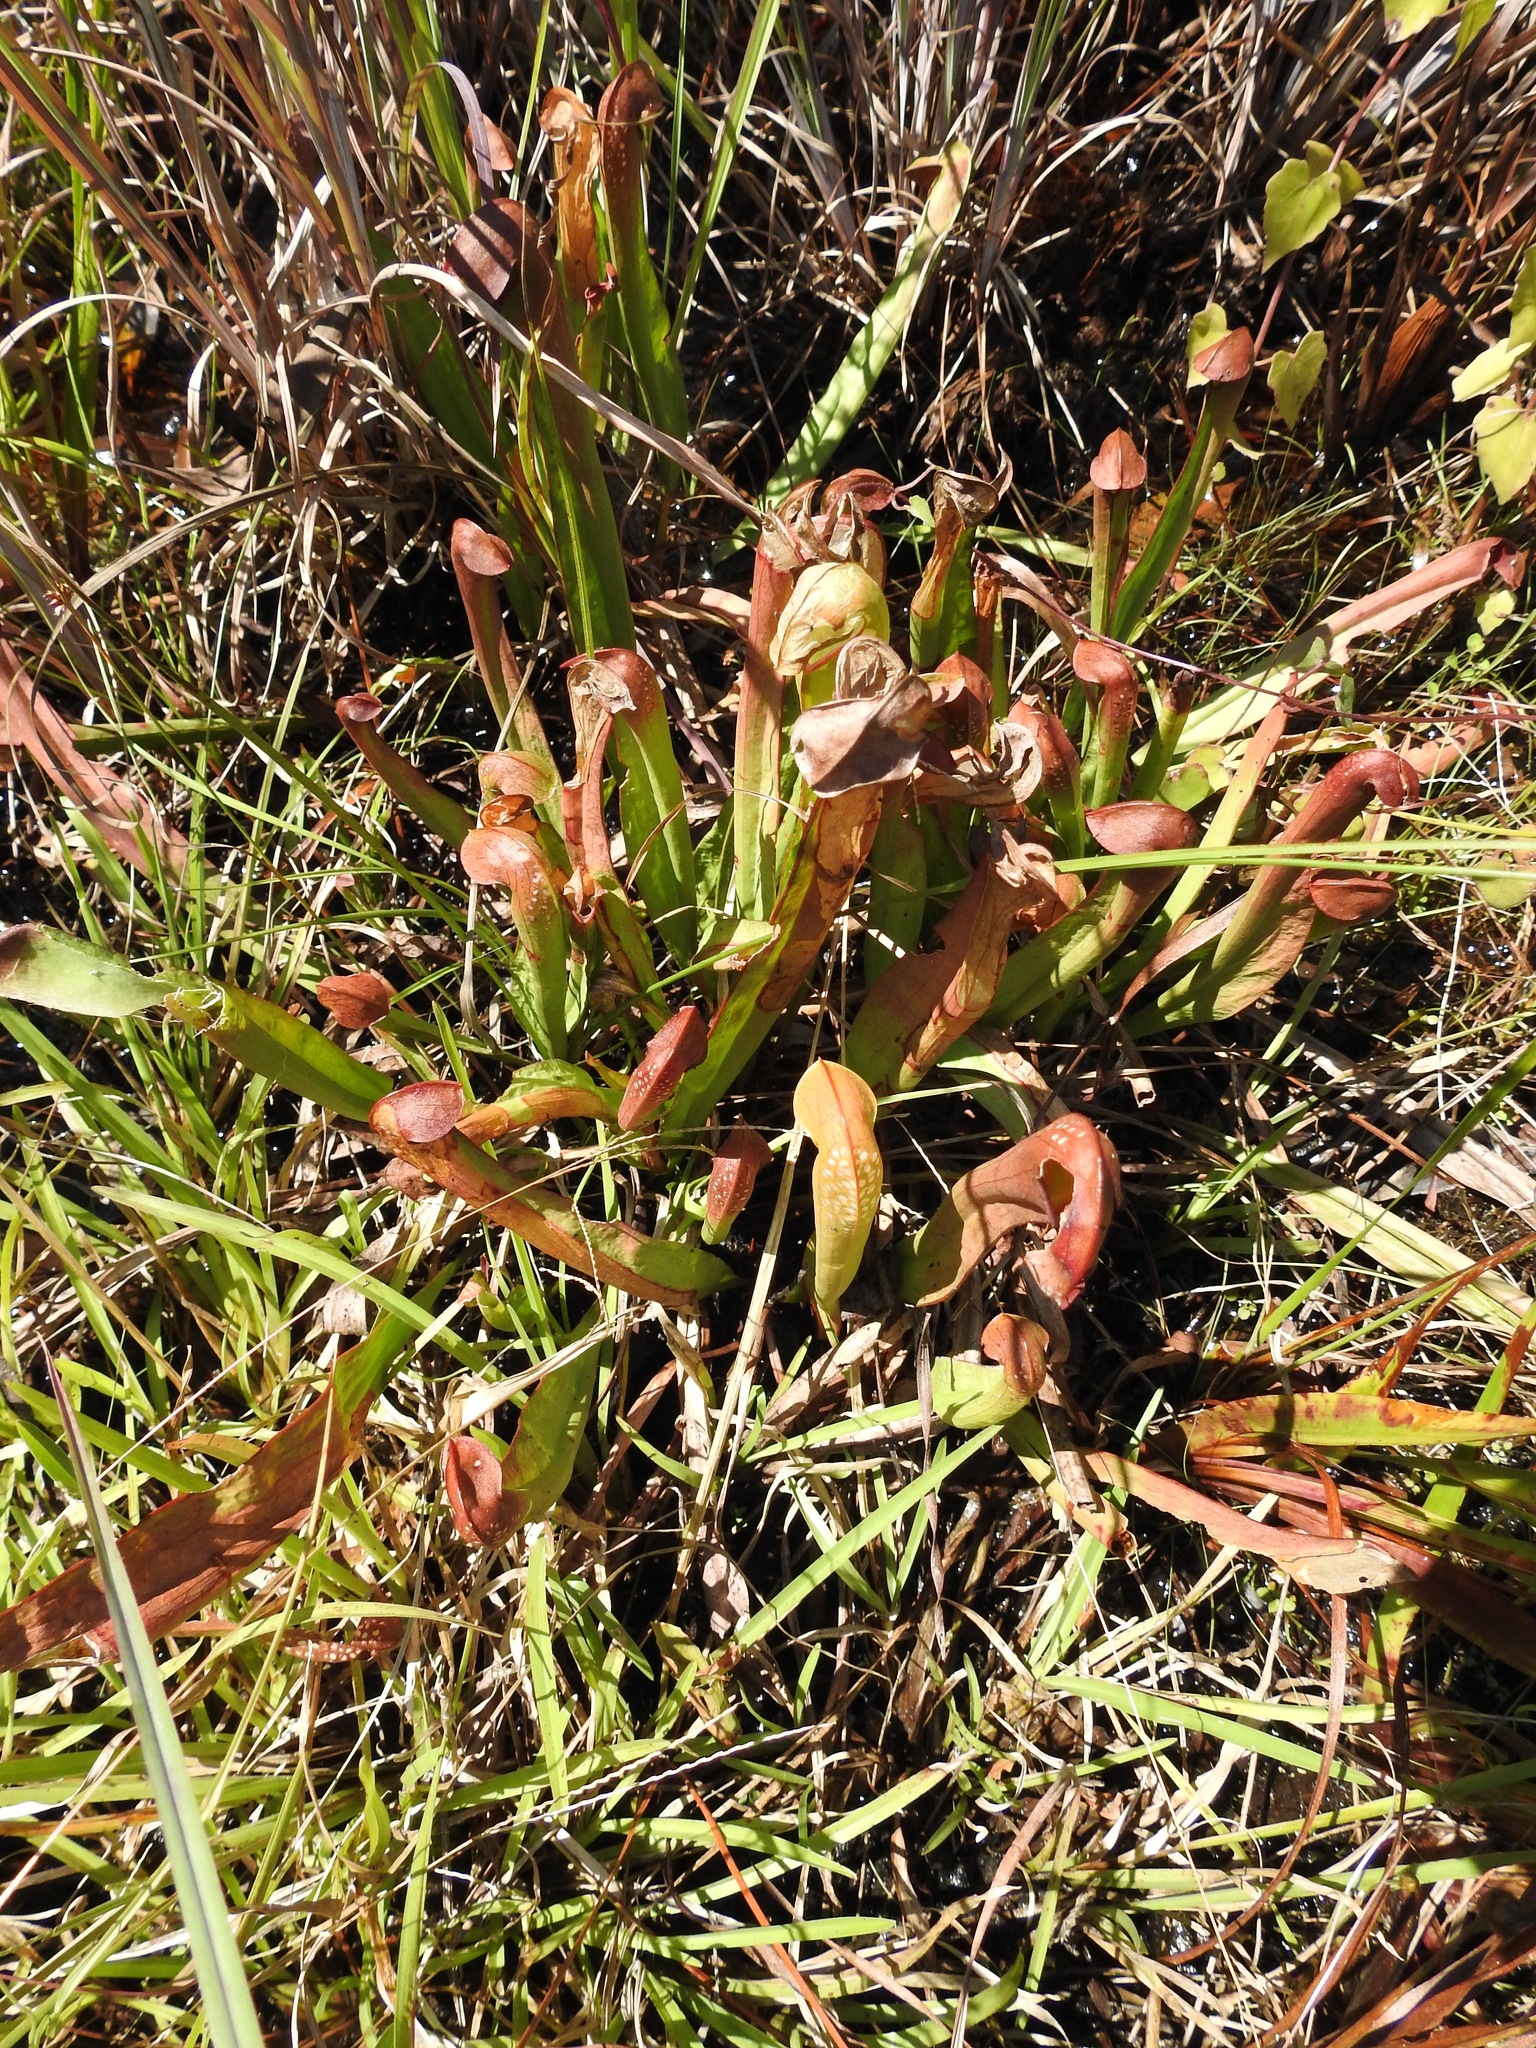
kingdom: Plantae
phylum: Tracheophyta
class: Magnoliopsida
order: Ericales
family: Sarraceniaceae
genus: Sarracenia
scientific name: Sarracenia minor
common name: Rainhat-trumpet
